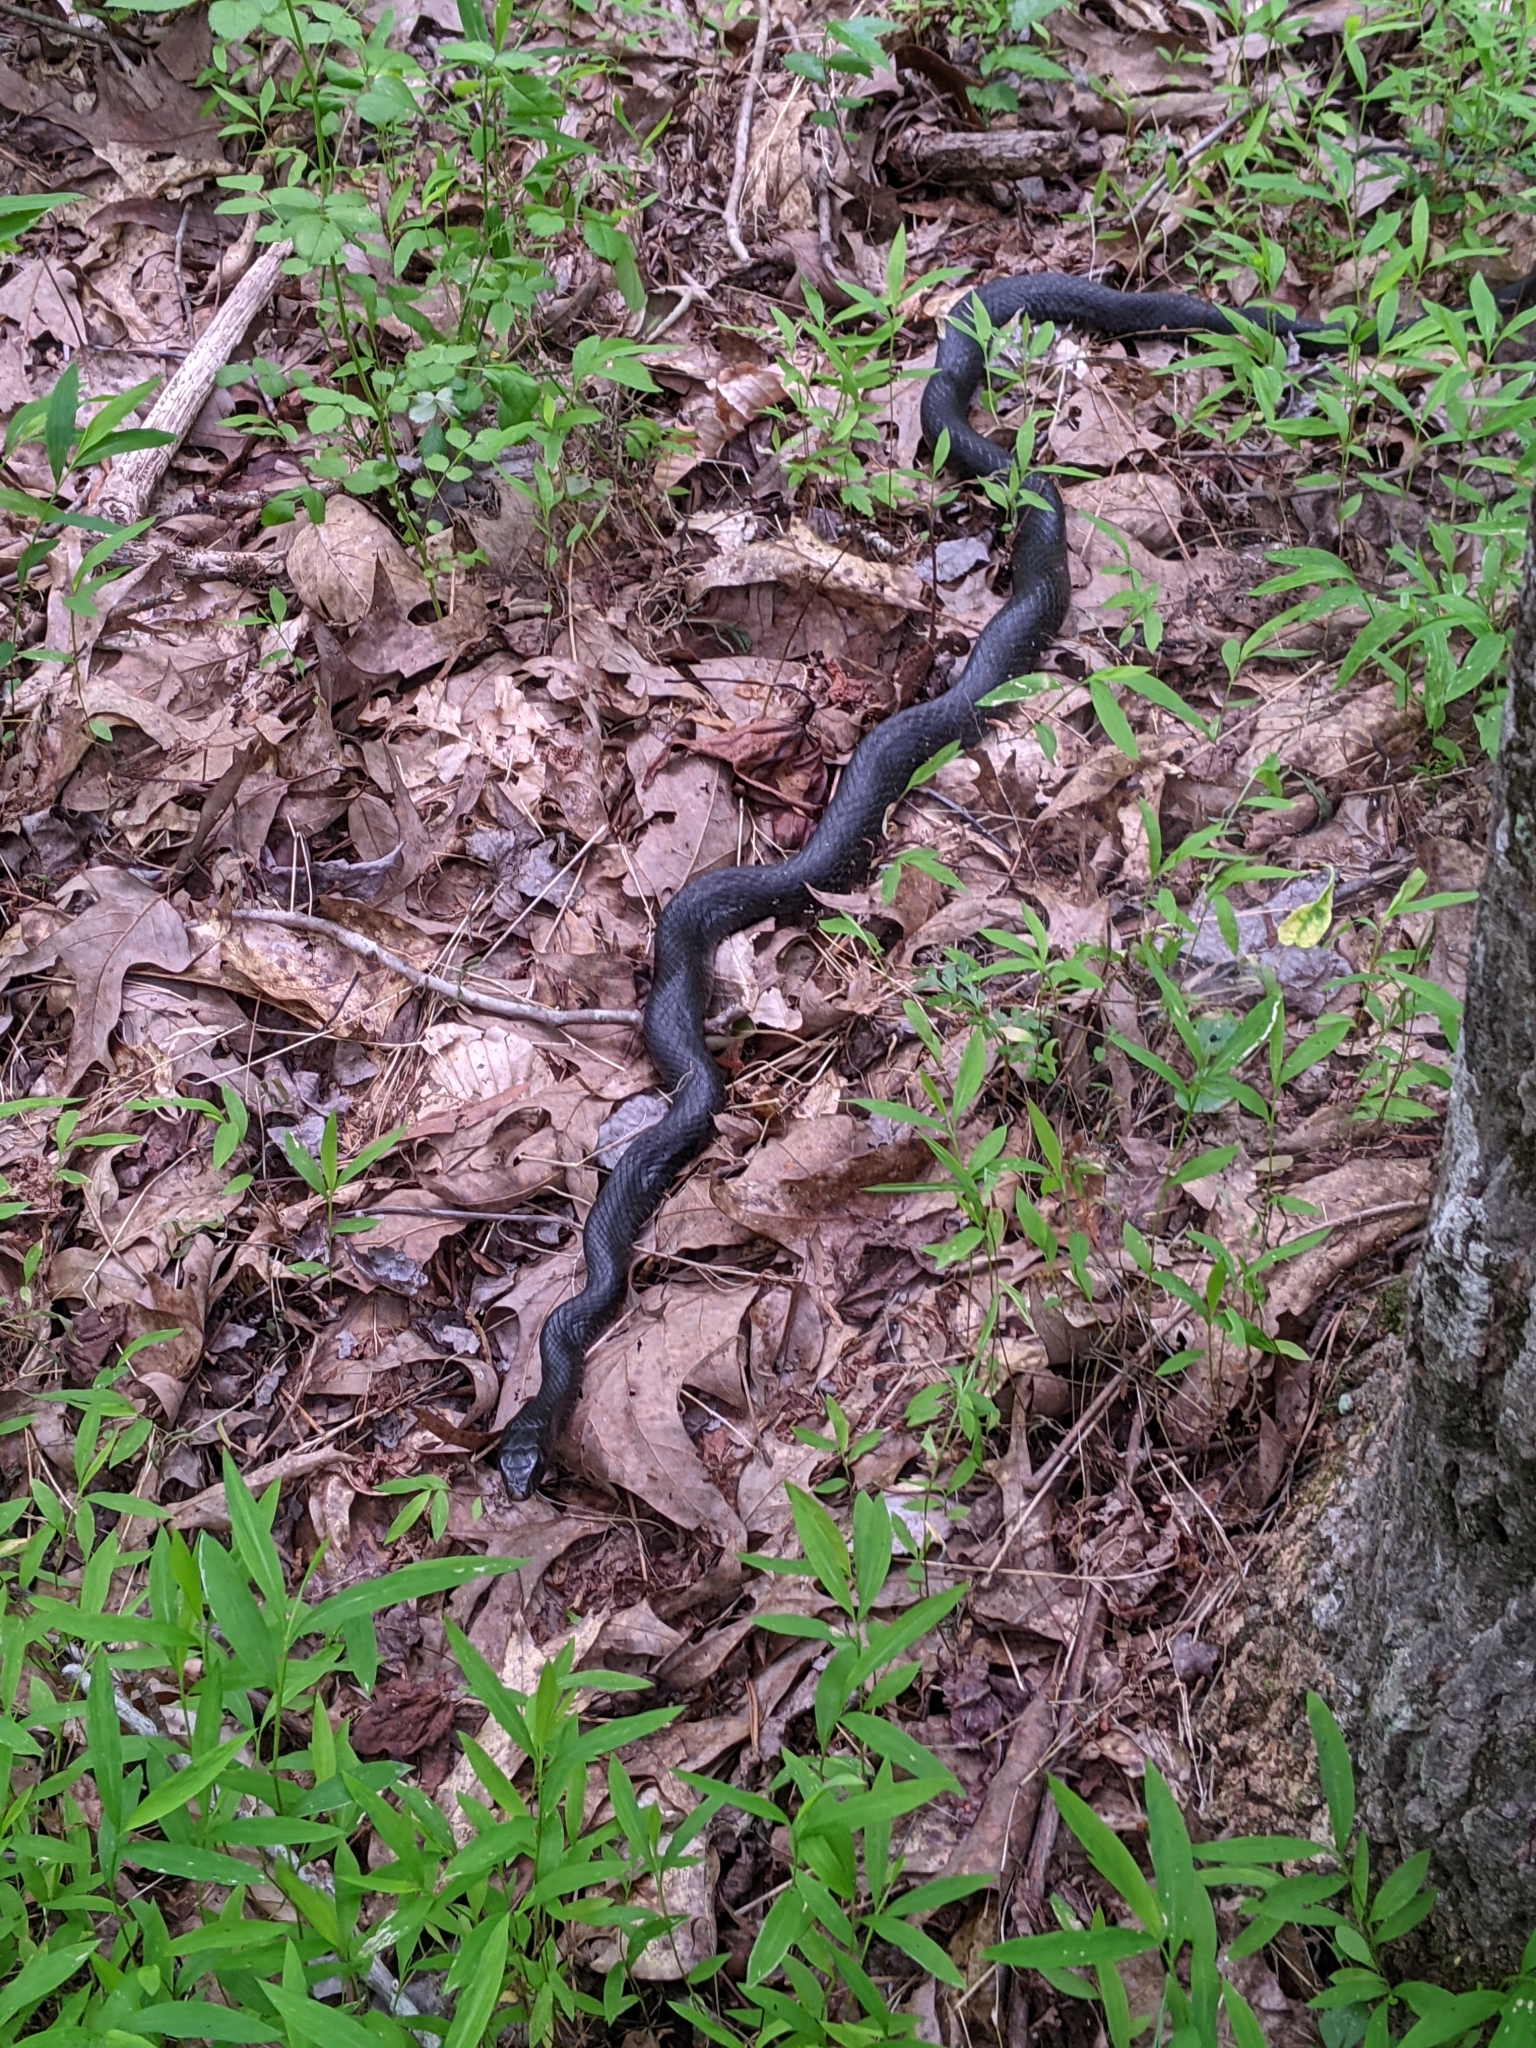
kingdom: Animalia
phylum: Chordata
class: Squamata
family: Colubridae
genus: Coluber
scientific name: Coluber constrictor
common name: Eastern racer
